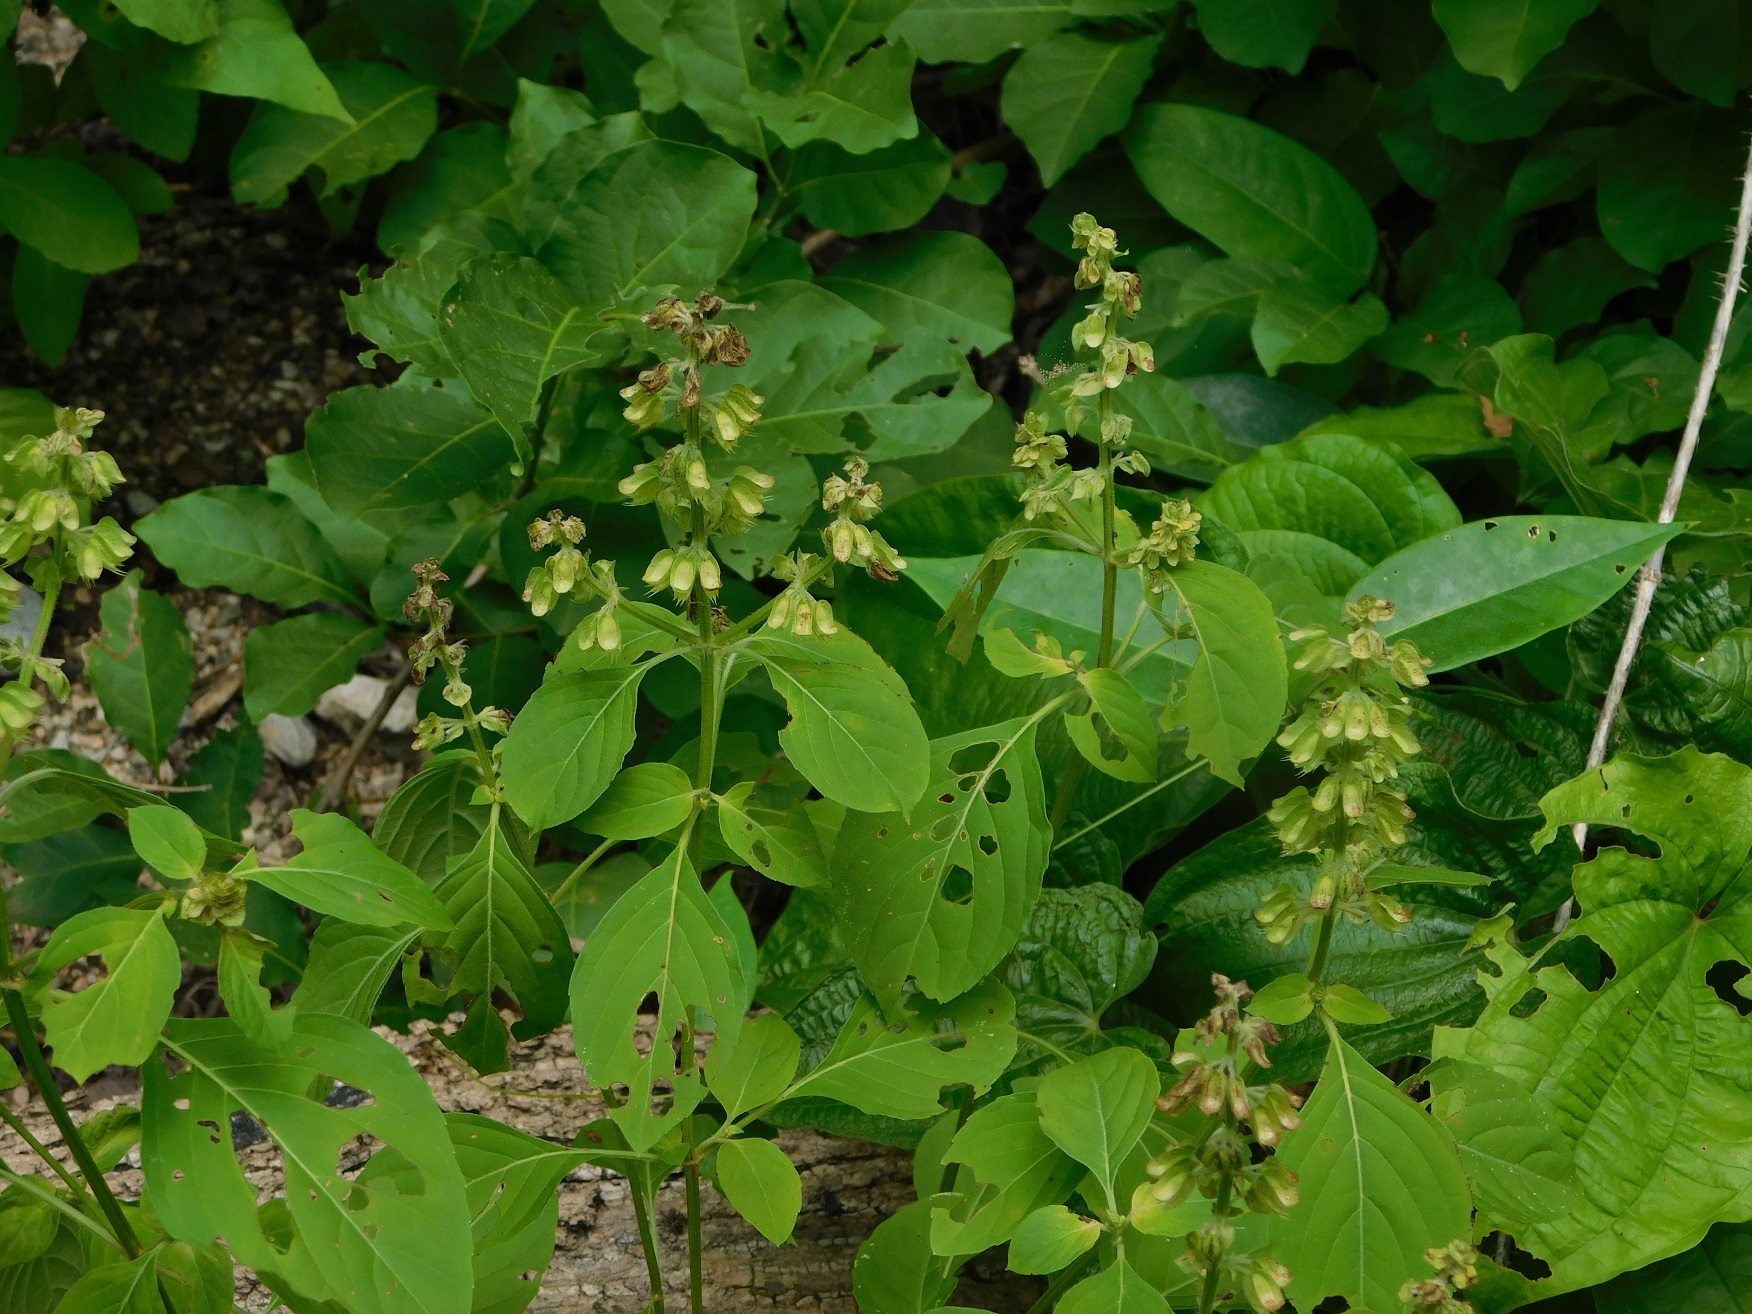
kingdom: Plantae
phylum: Tracheophyta
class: Magnoliopsida
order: Lamiales
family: Lamiaceae
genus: Ocimum
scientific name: Ocimum campechianum
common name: Mosquito basil
